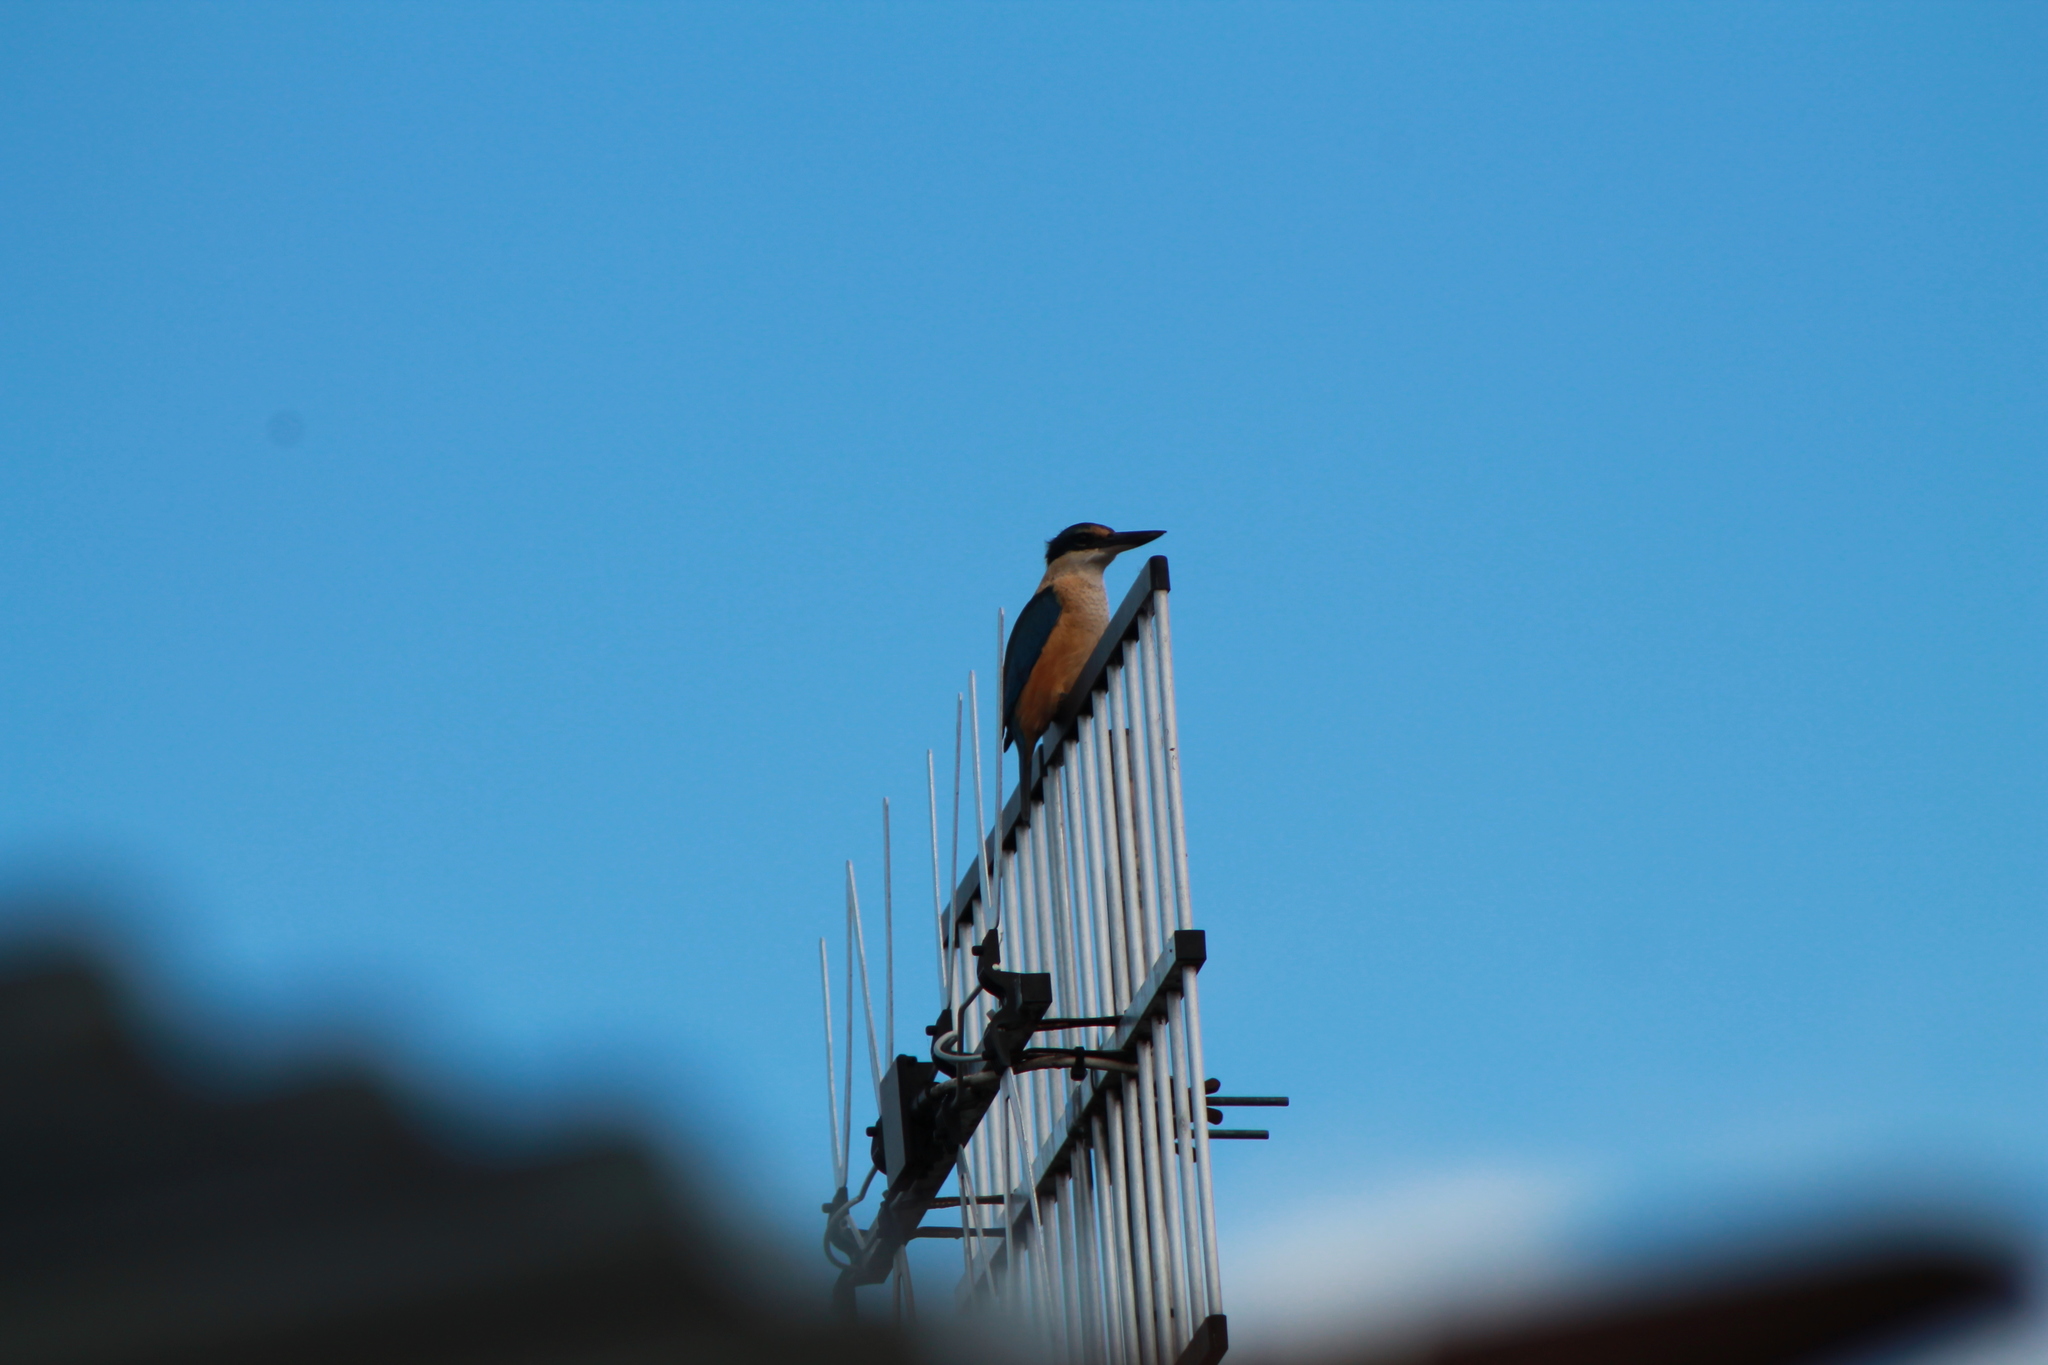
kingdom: Animalia
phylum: Chordata
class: Aves
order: Coraciiformes
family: Alcedinidae
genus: Todiramphus
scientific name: Todiramphus sanctus
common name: Sacred kingfisher
